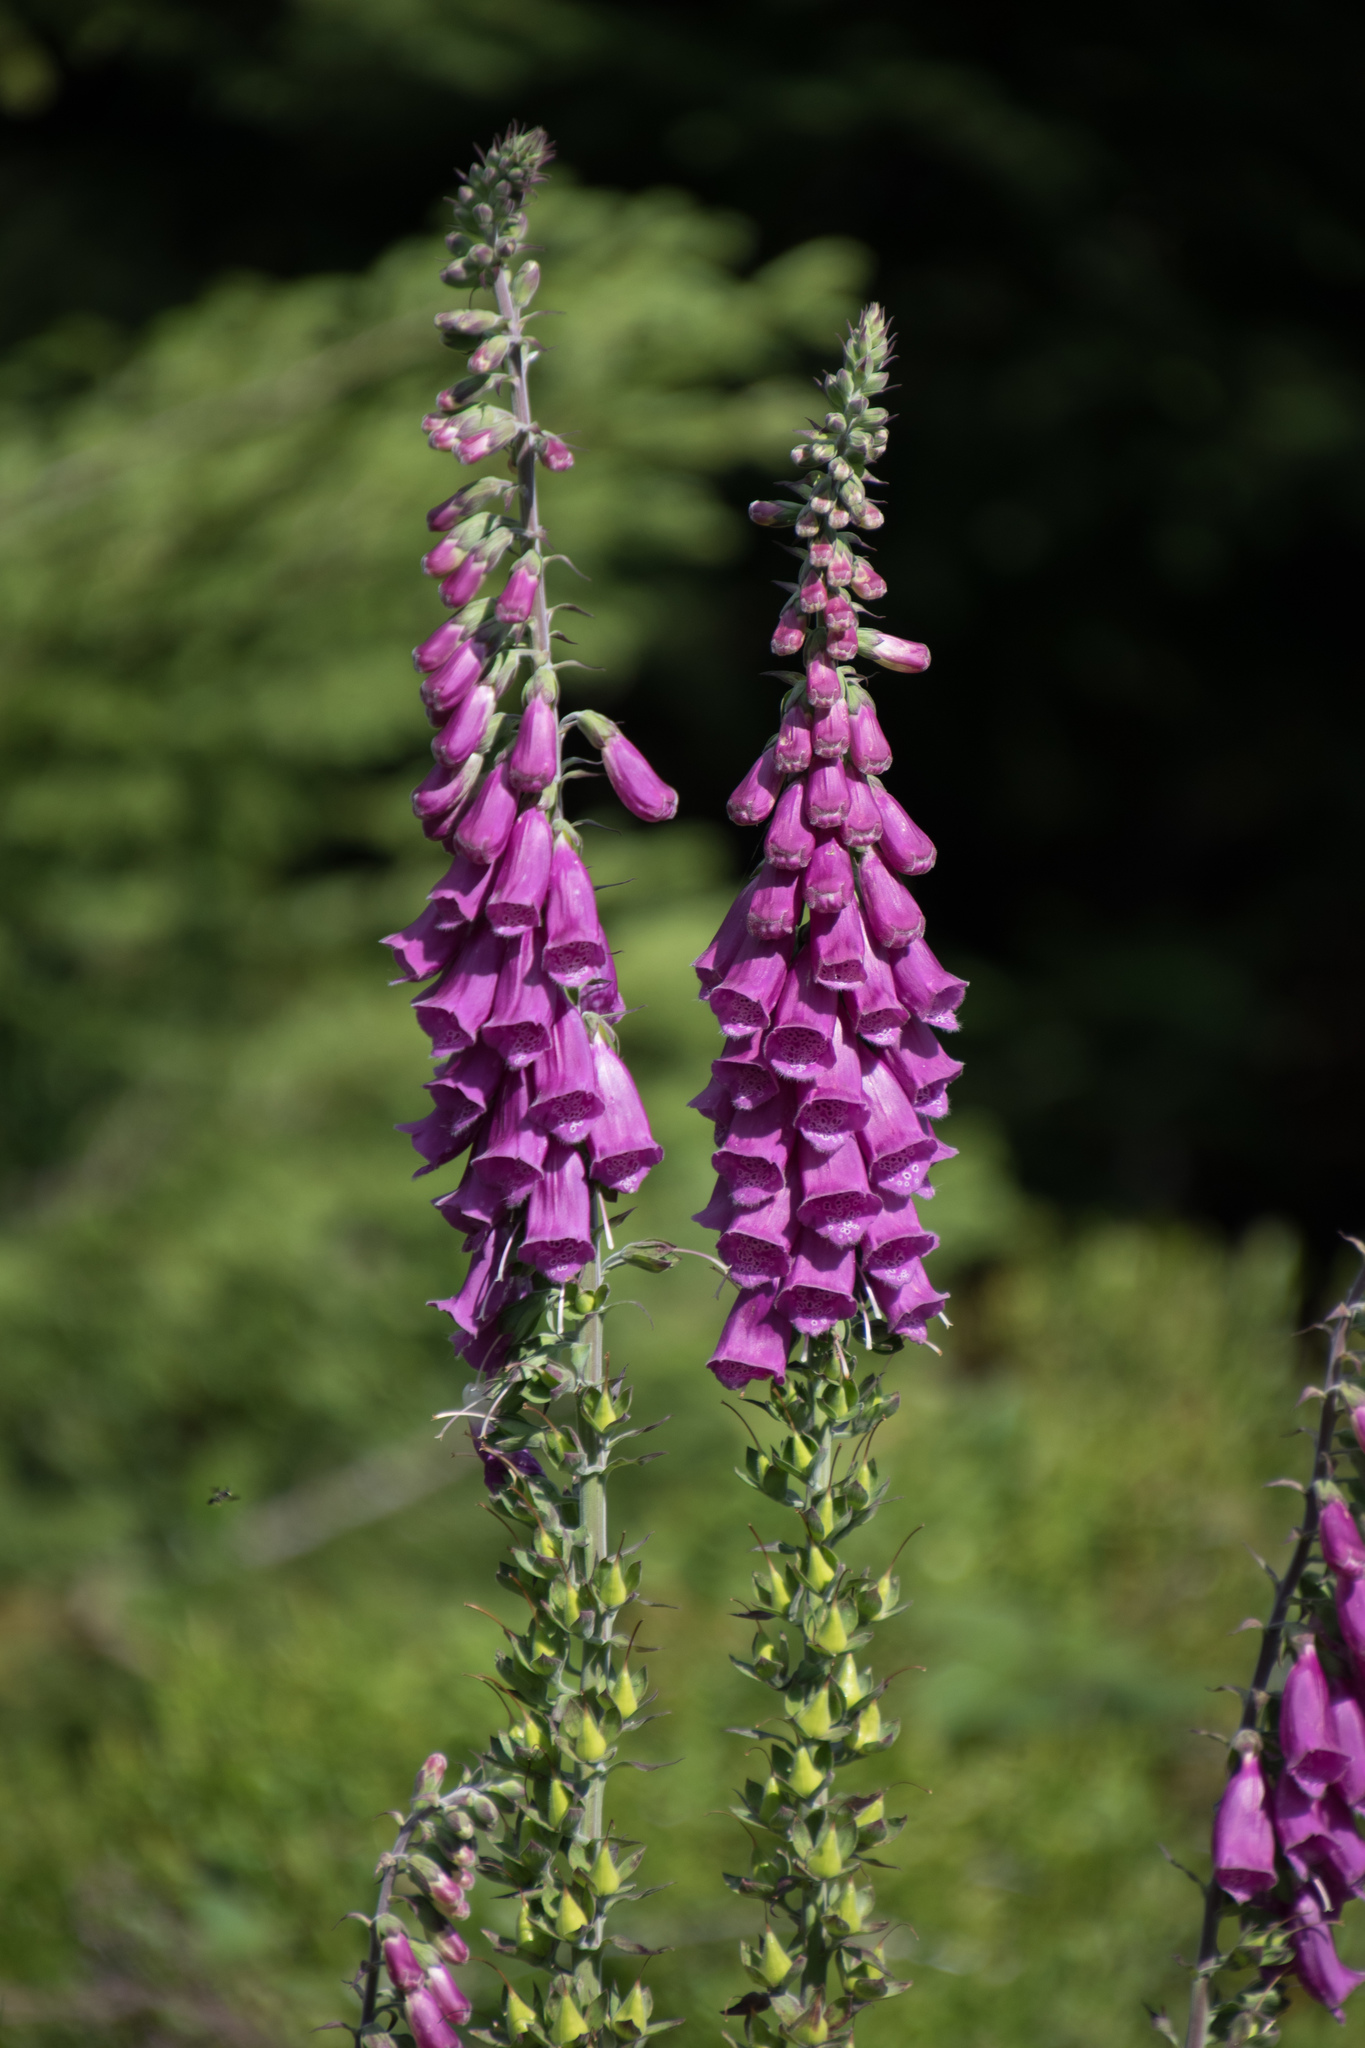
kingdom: Plantae
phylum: Tracheophyta
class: Magnoliopsida
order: Lamiales
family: Plantaginaceae
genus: Digitalis
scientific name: Digitalis purpurea
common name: Foxglove
